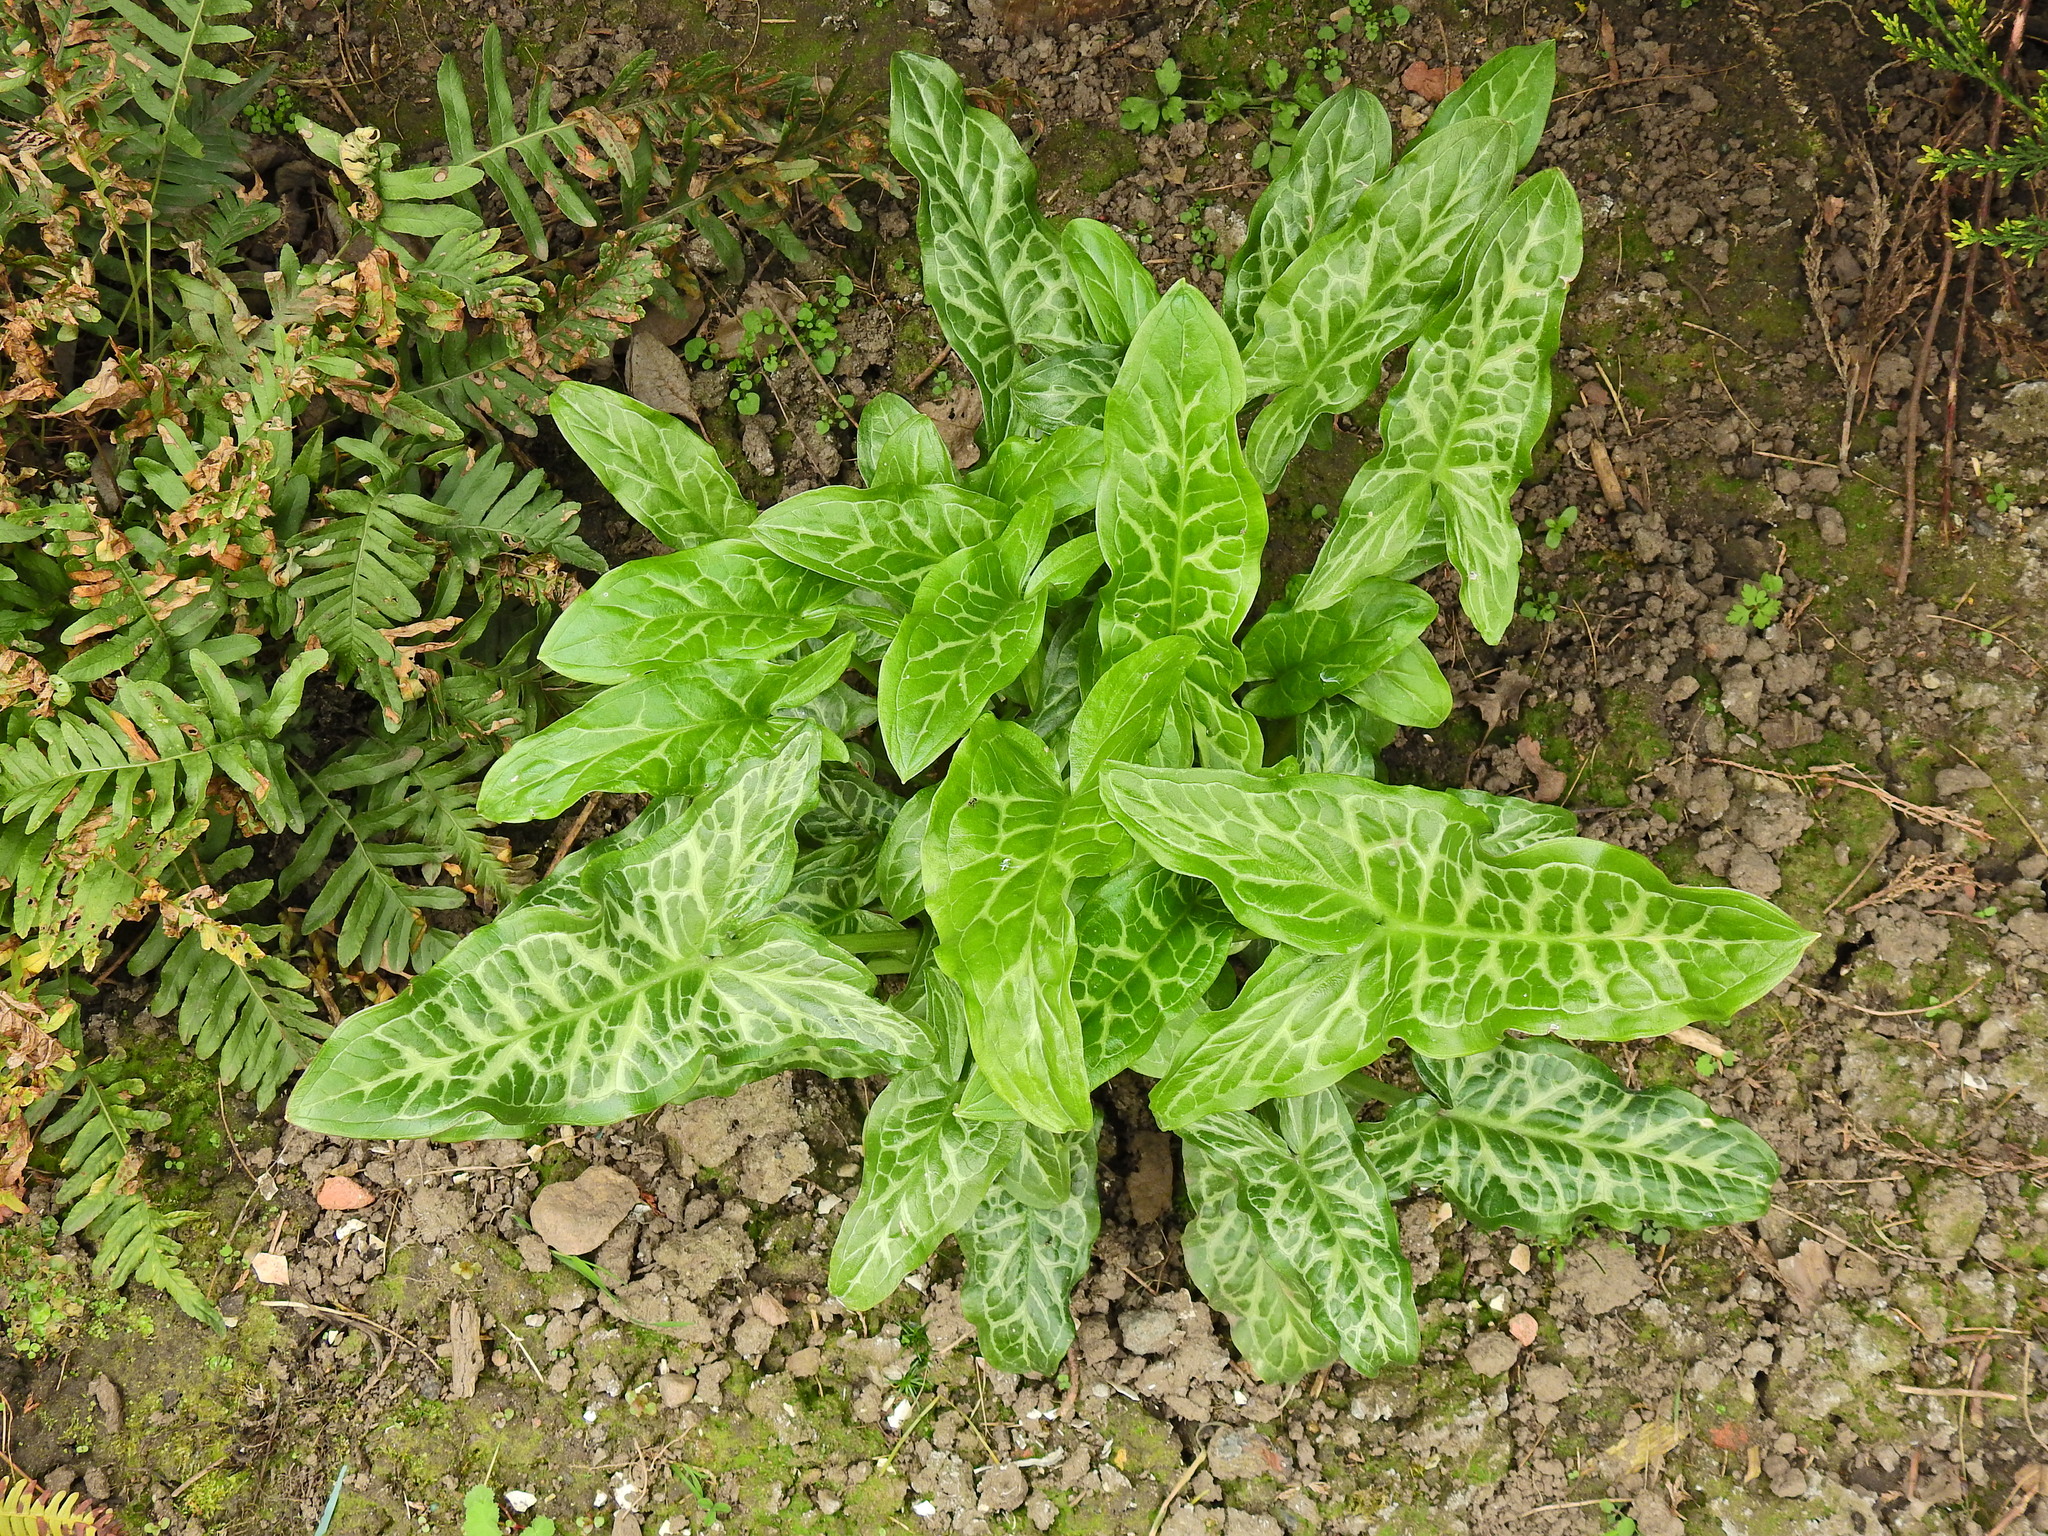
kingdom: Plantae
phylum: Tracheophyta
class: Liliopsida
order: Alismatales
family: Araceae
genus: Arum
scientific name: Arum italicum
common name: Italian lords-and-ladies
